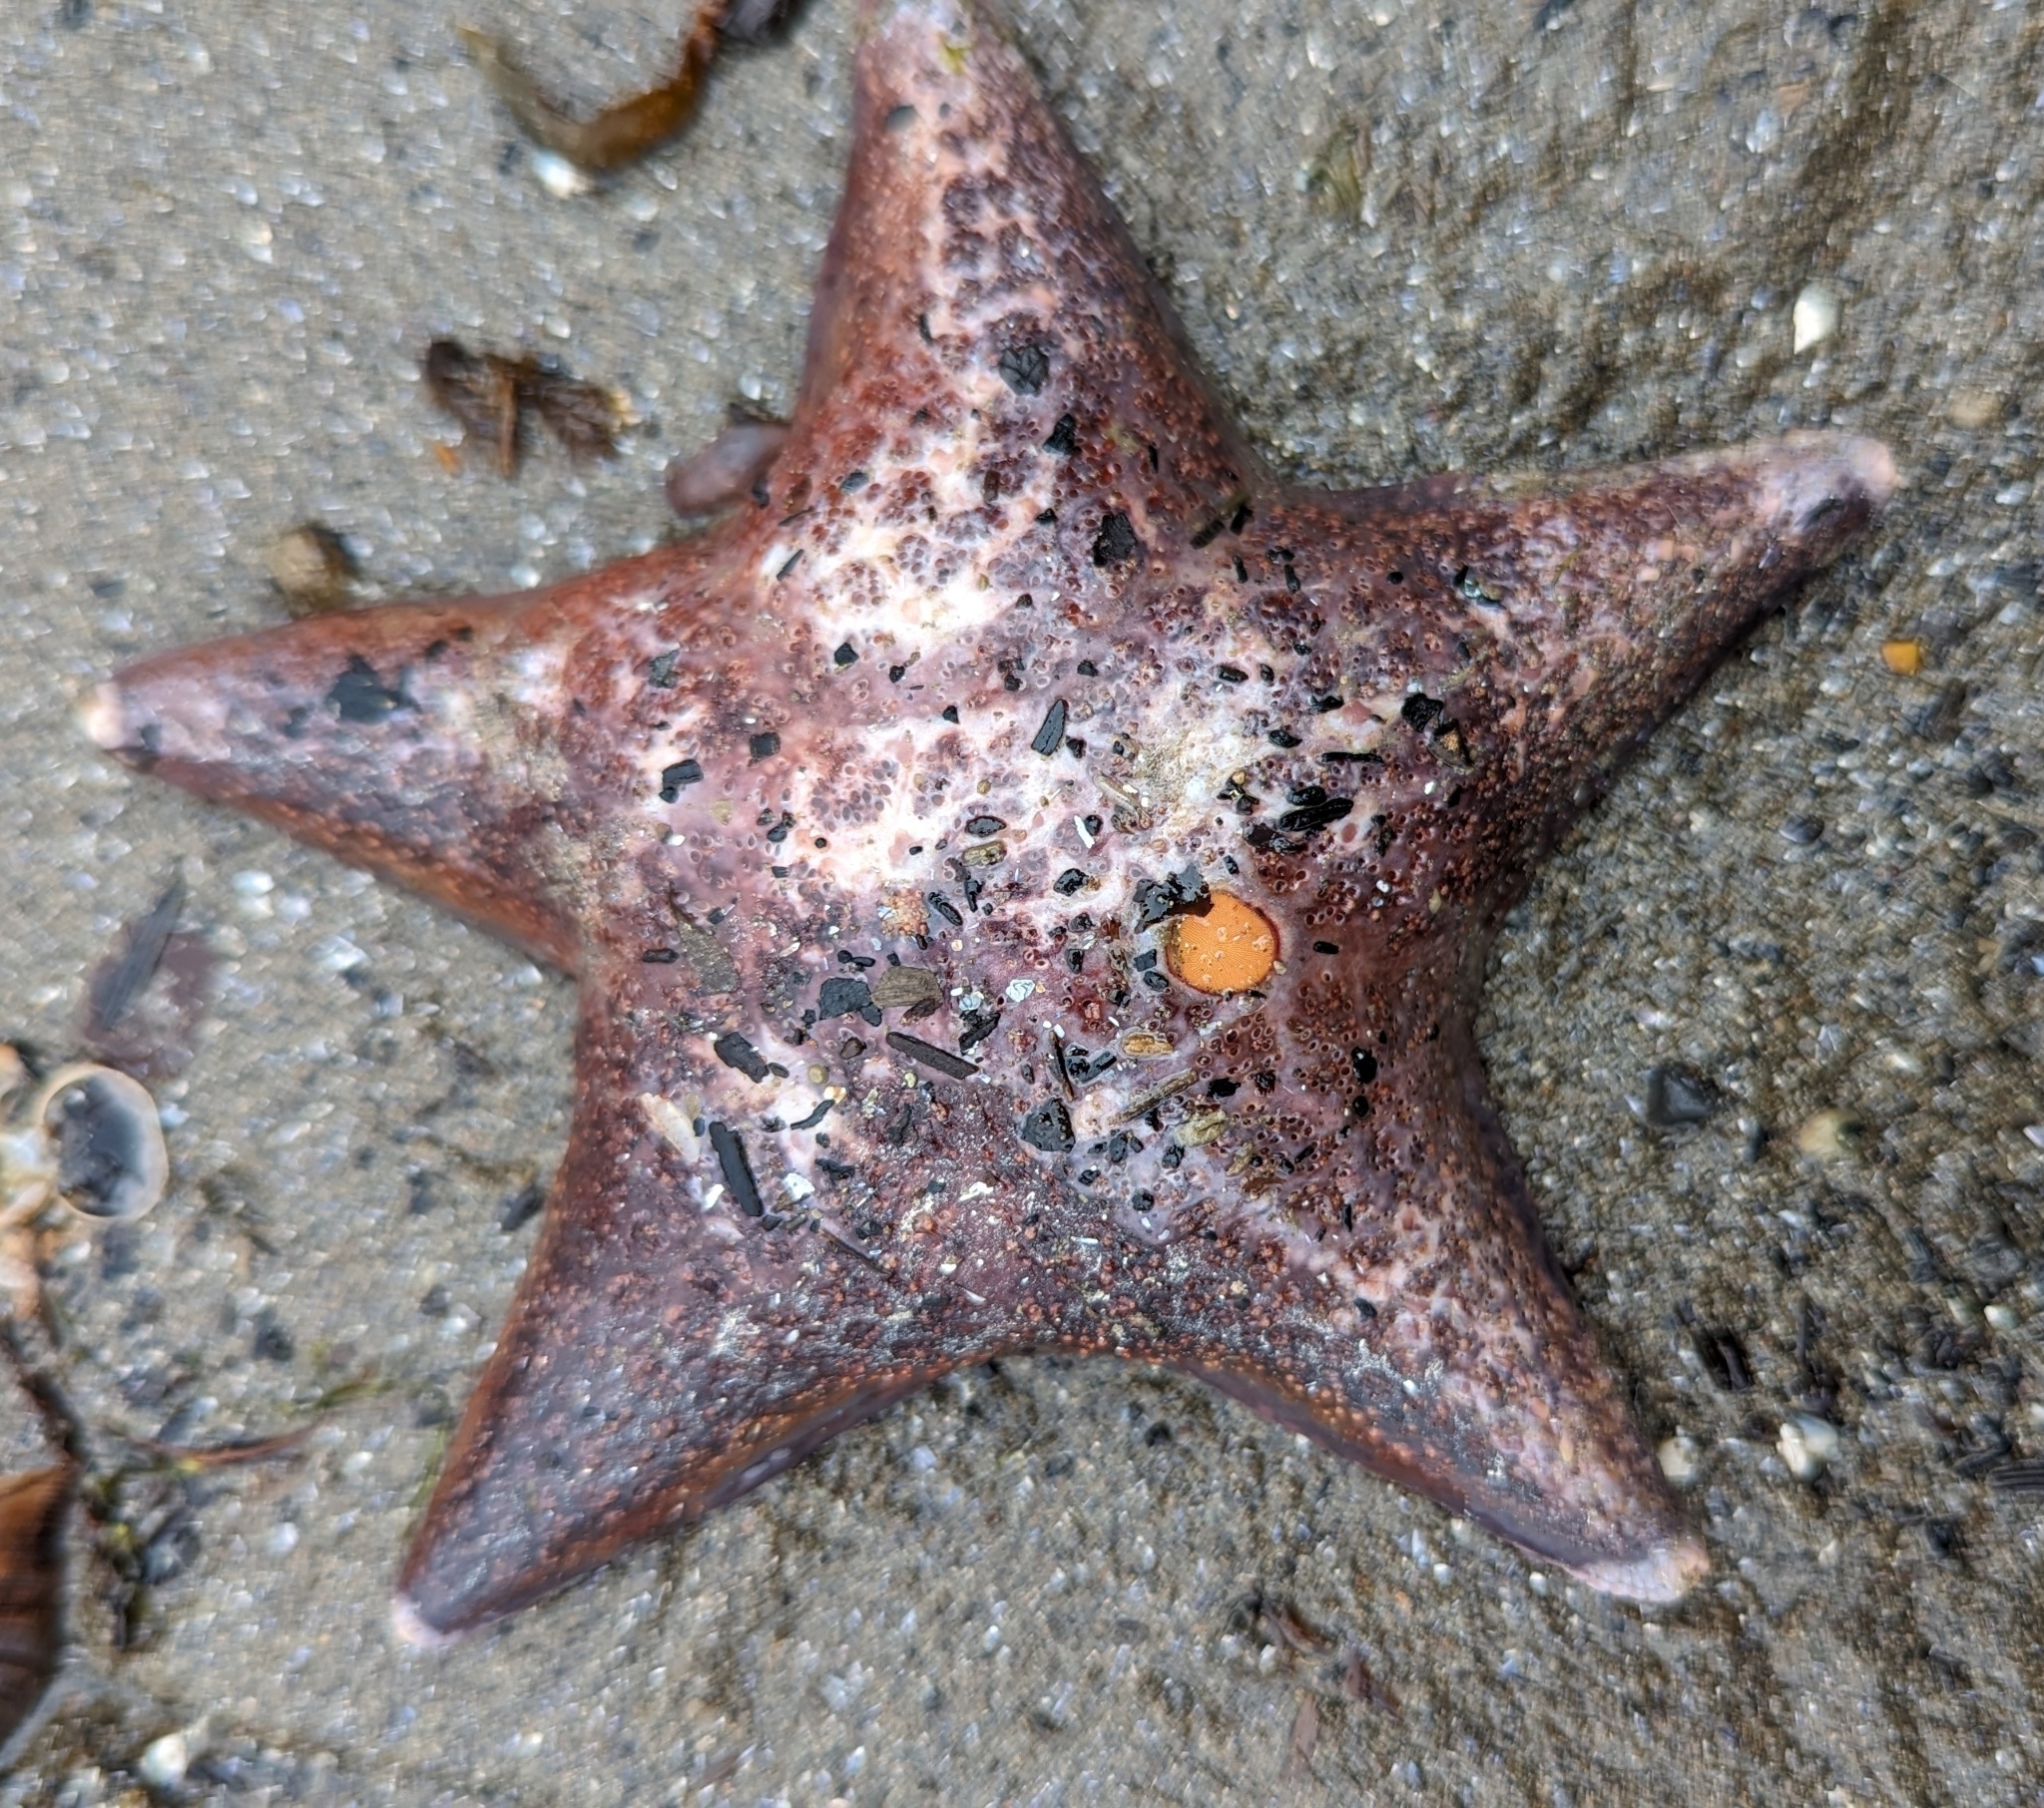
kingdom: Animalia
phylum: Echinodermata
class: Asteroidea
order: Valvatida
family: Asteropseidae
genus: Dermasterias
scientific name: Dermasterias imbricata
